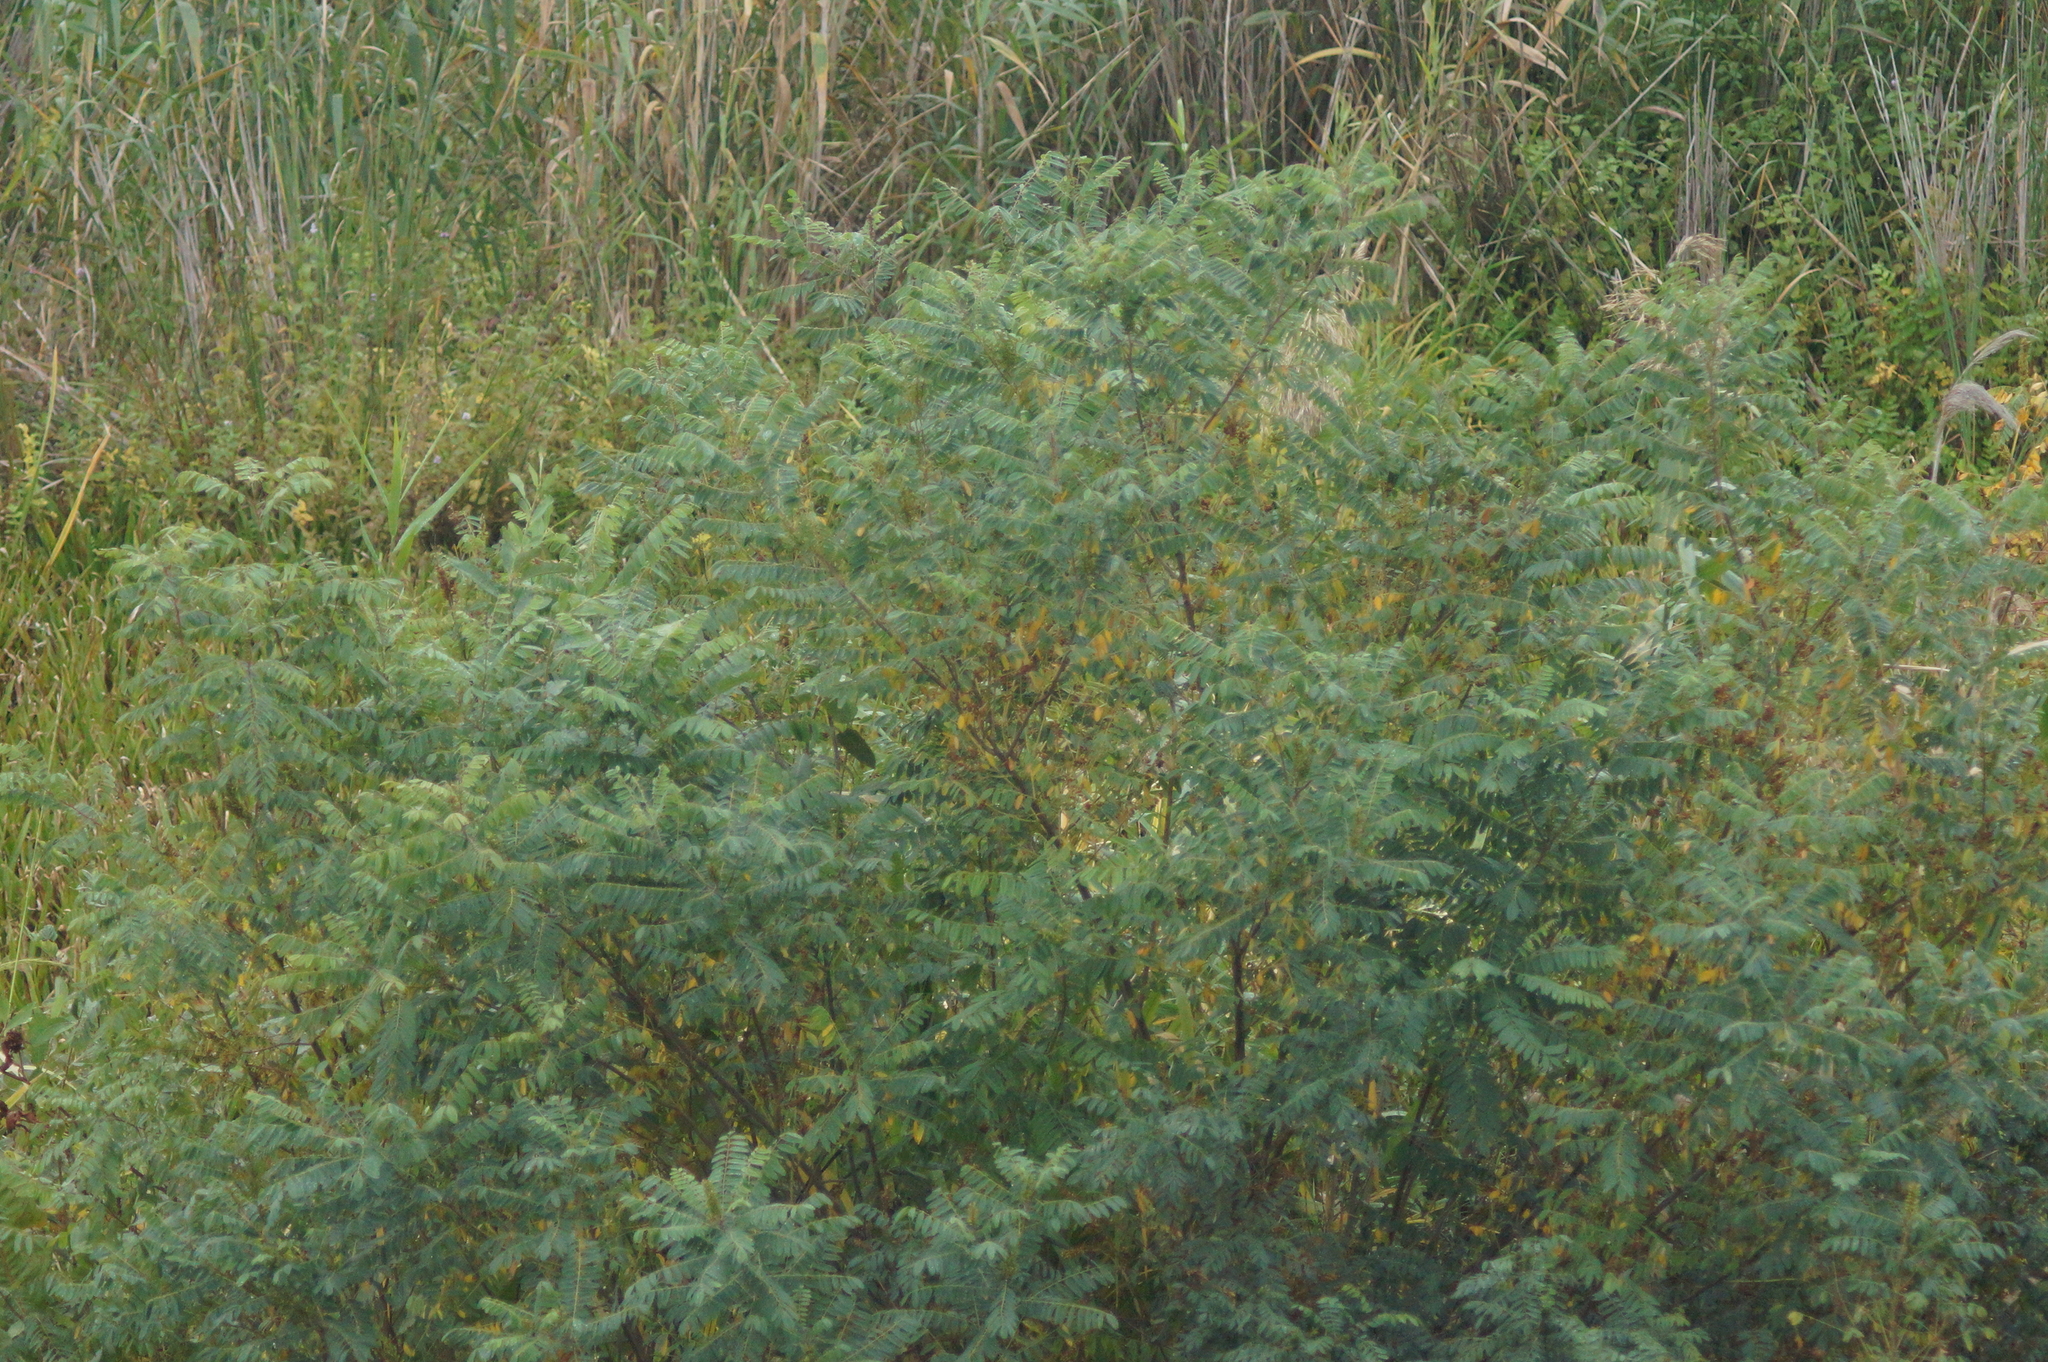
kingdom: Plantae
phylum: Tracheophyta
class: Magnoliopsida
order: Fabales
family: Fabaceae
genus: Amorpha
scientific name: Amorpha fruticosa
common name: False indigo
